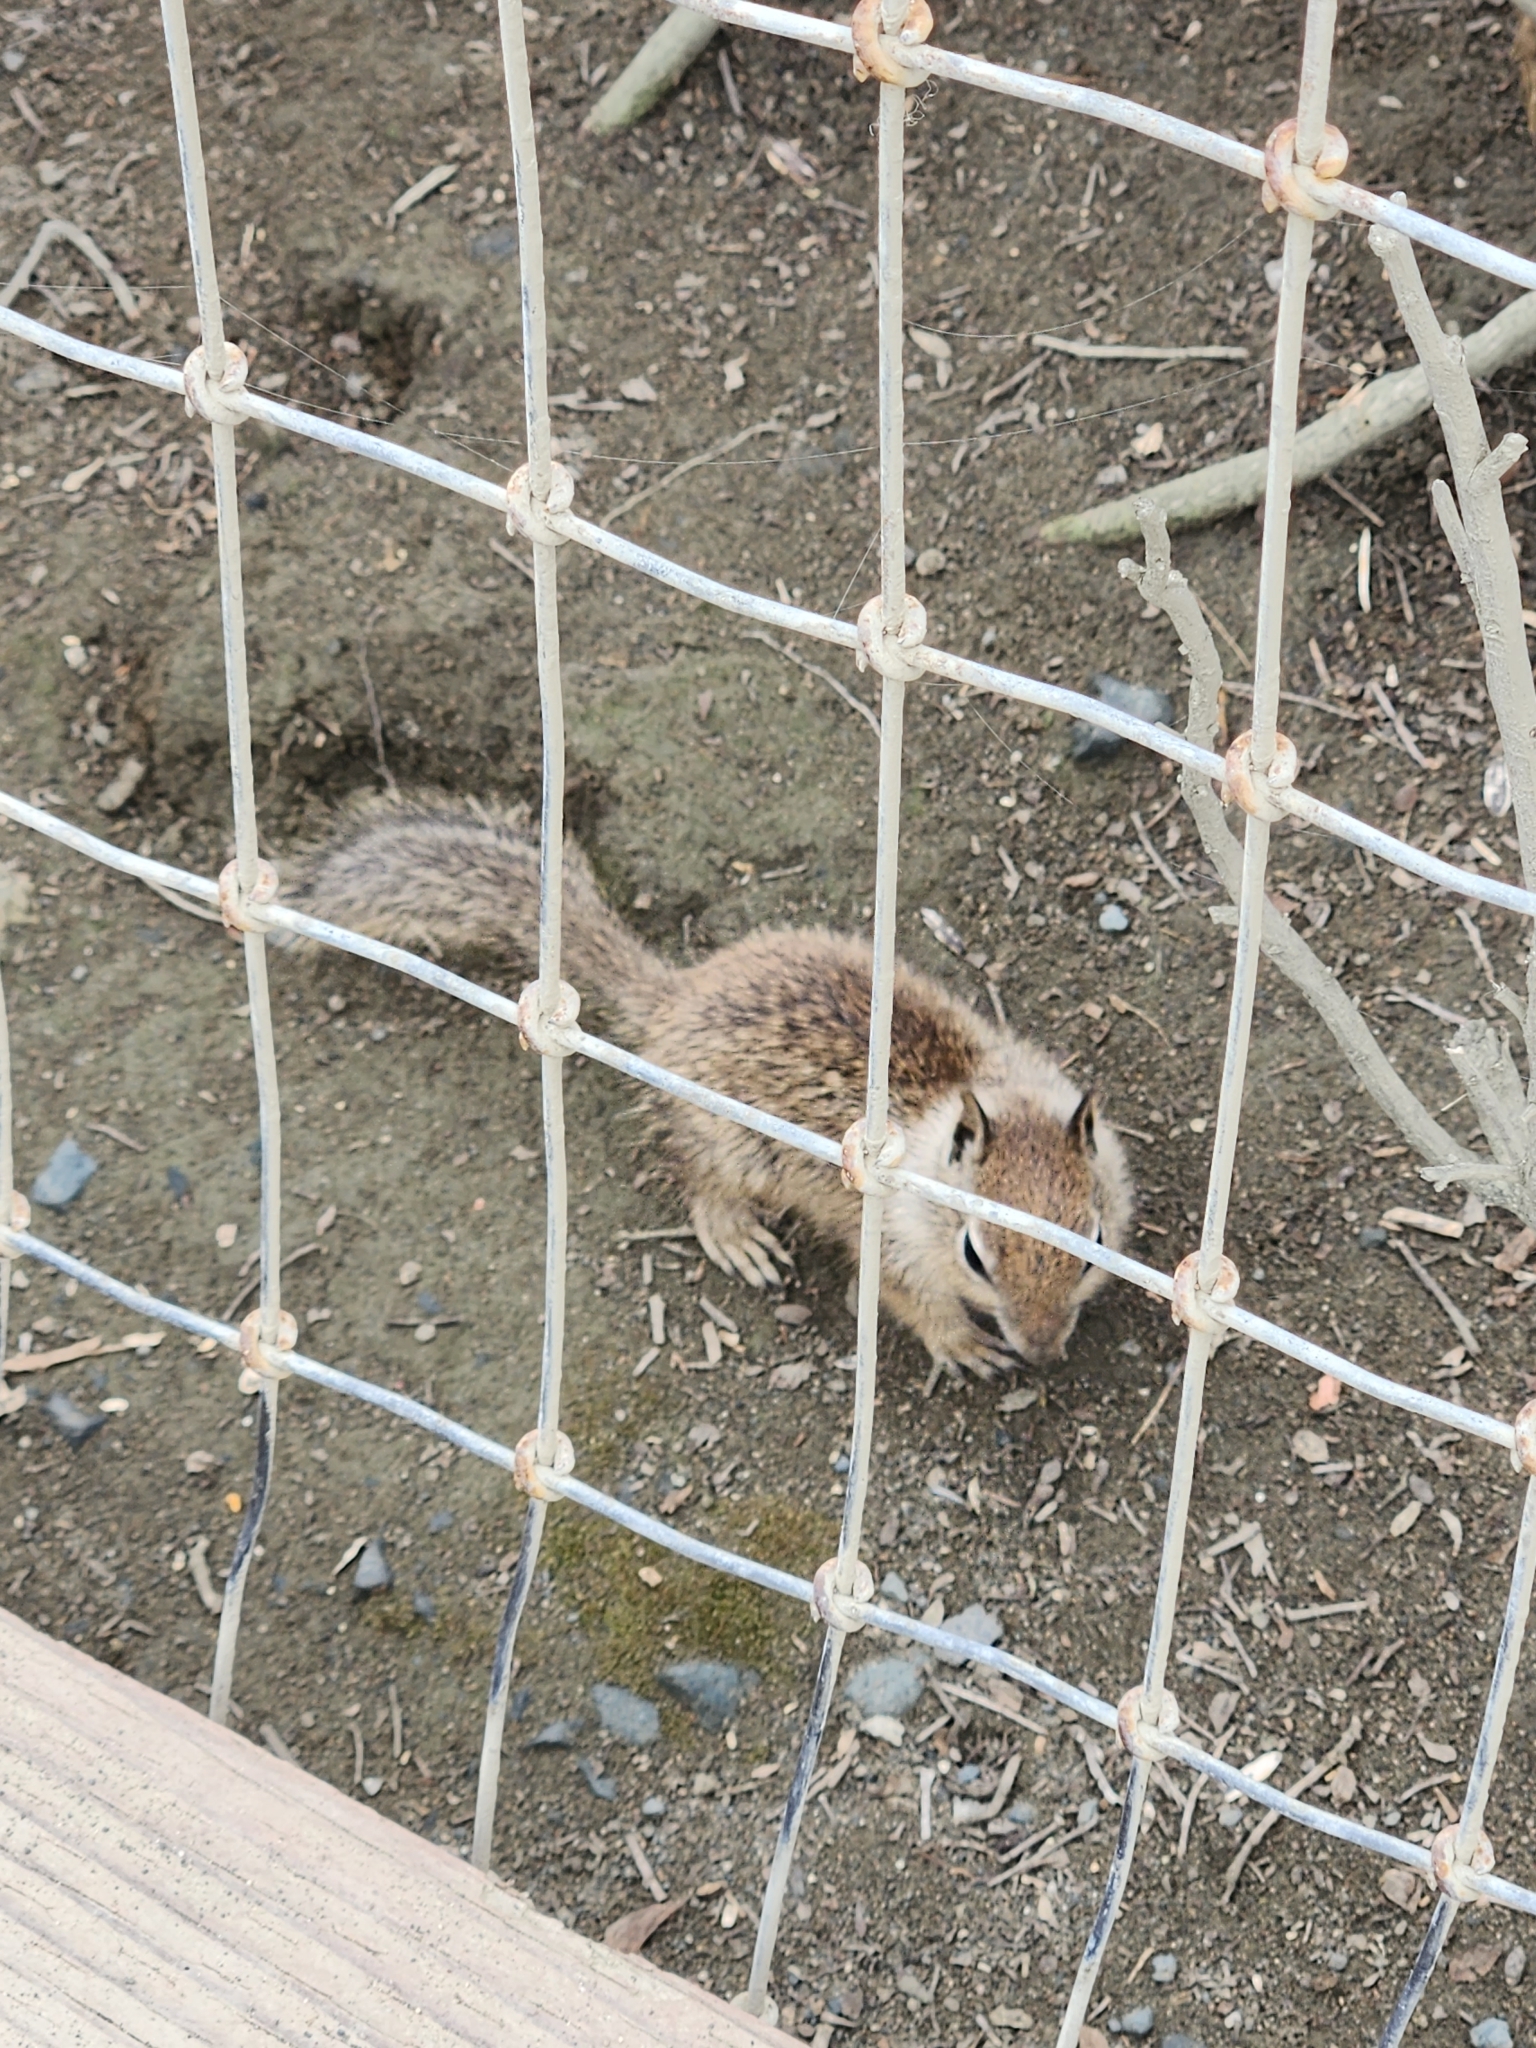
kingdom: Animalia
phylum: Chordata
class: Mammalia
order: Rodentia
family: Sciuridae
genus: Otospermophilus
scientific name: Otospermophilus beecheyi
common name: California ground squirrel
